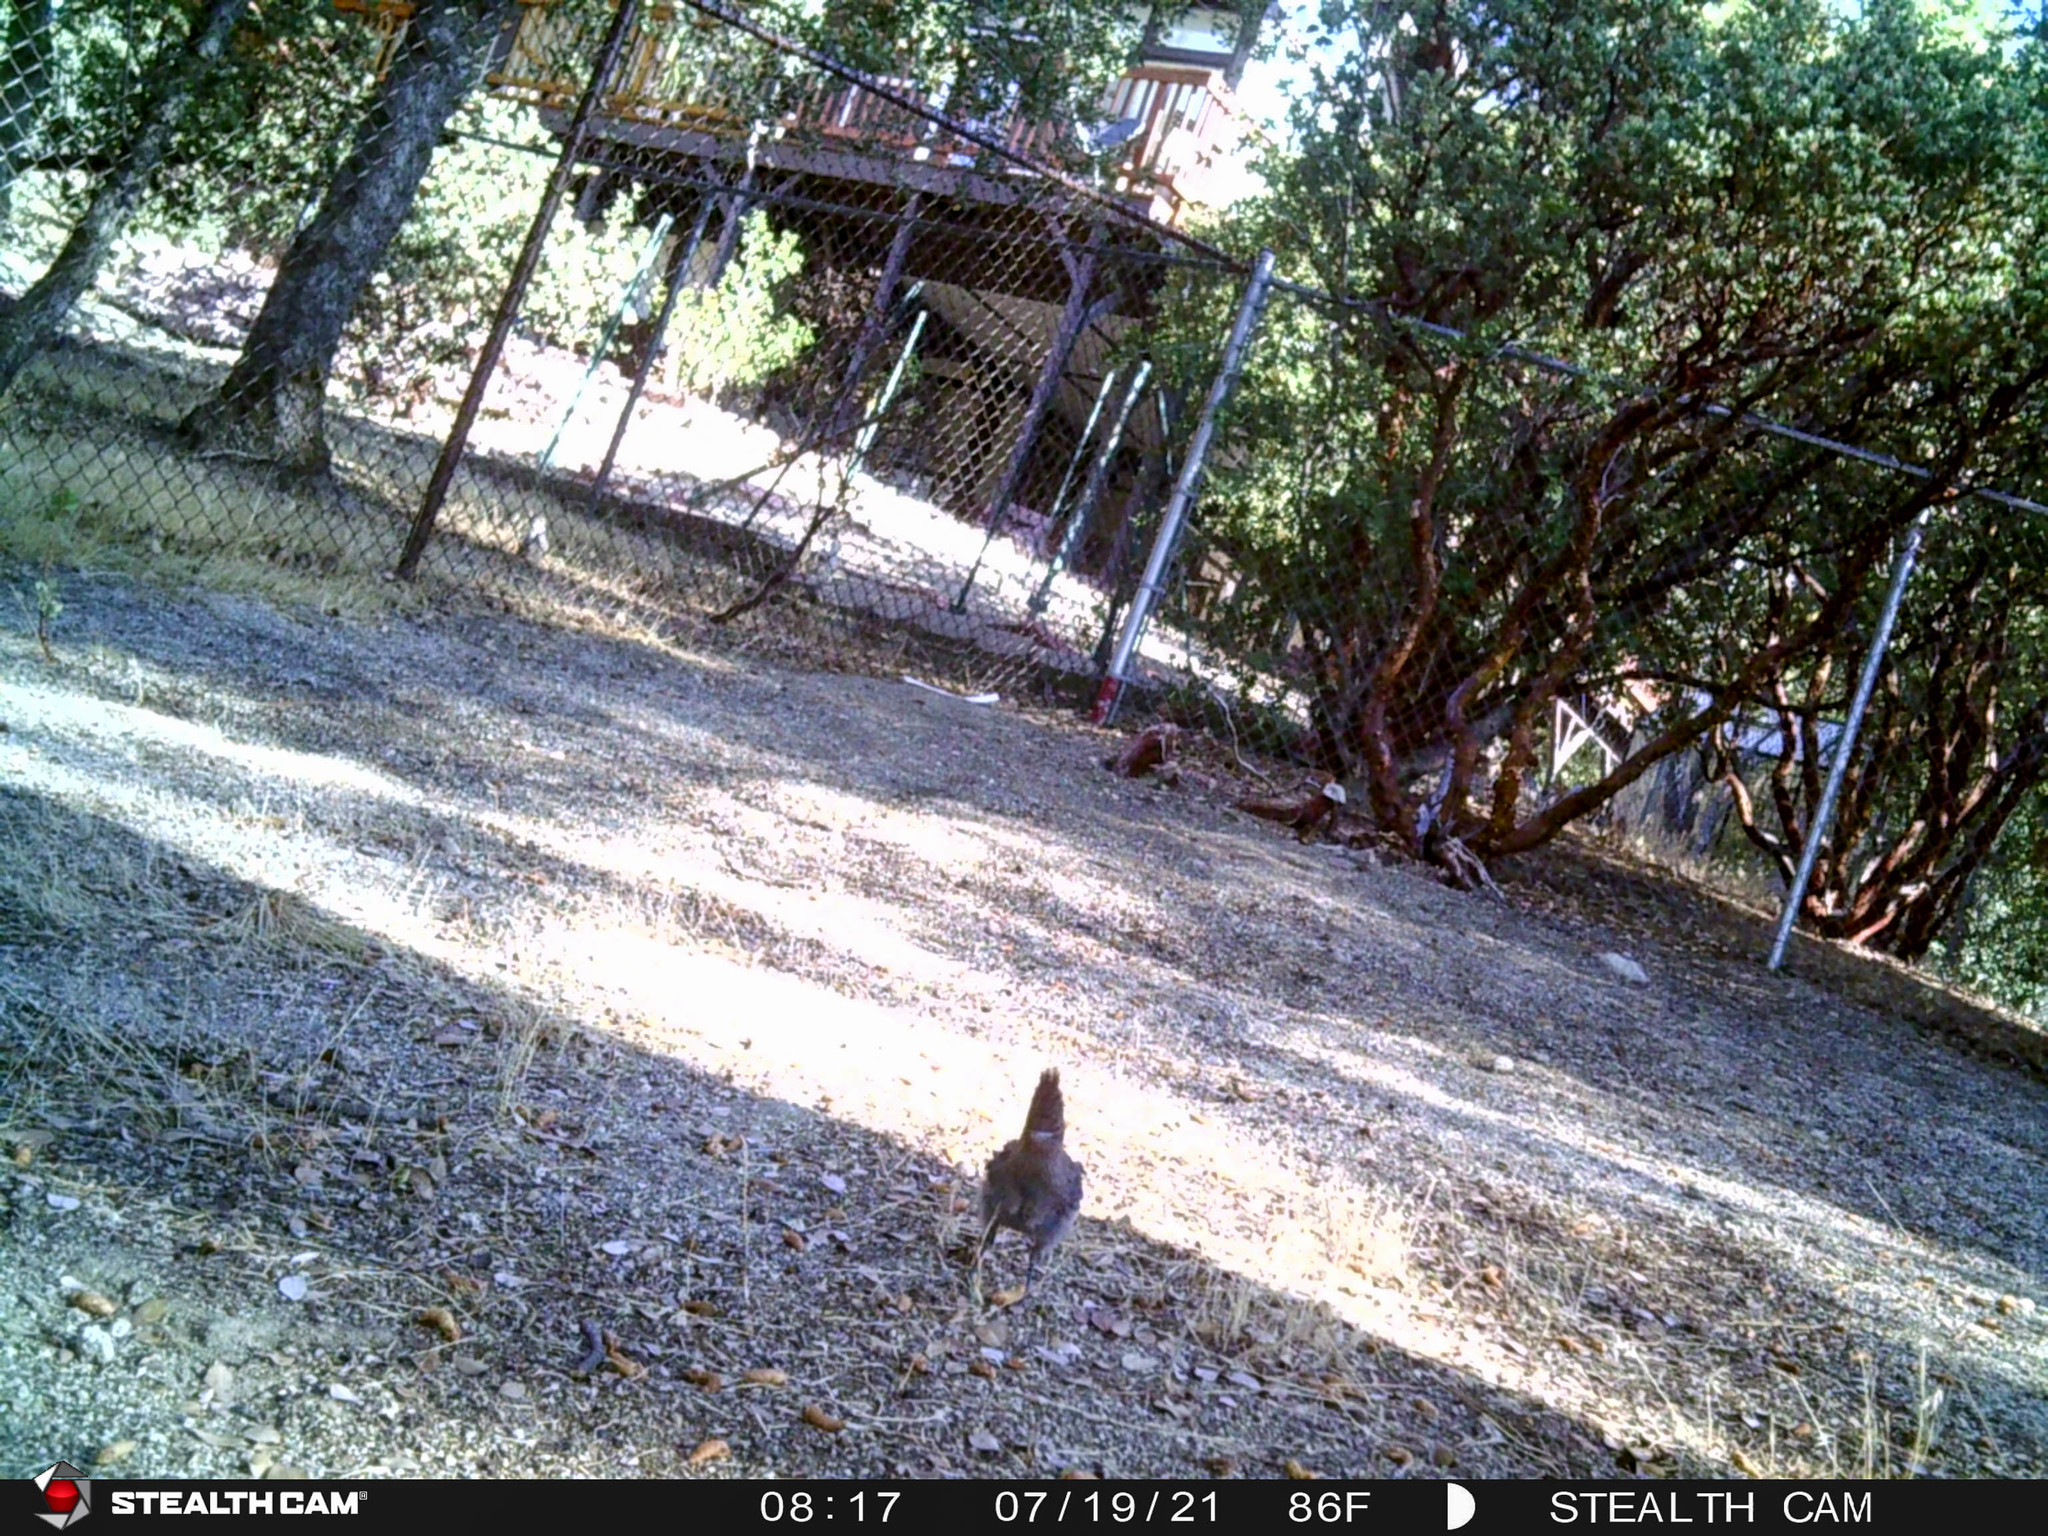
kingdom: Animalia
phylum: Chordata
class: Aves
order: Passeriformes
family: Corvidae
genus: Cyanocitta
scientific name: Cyanocitta stelleri
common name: Steller's jay
